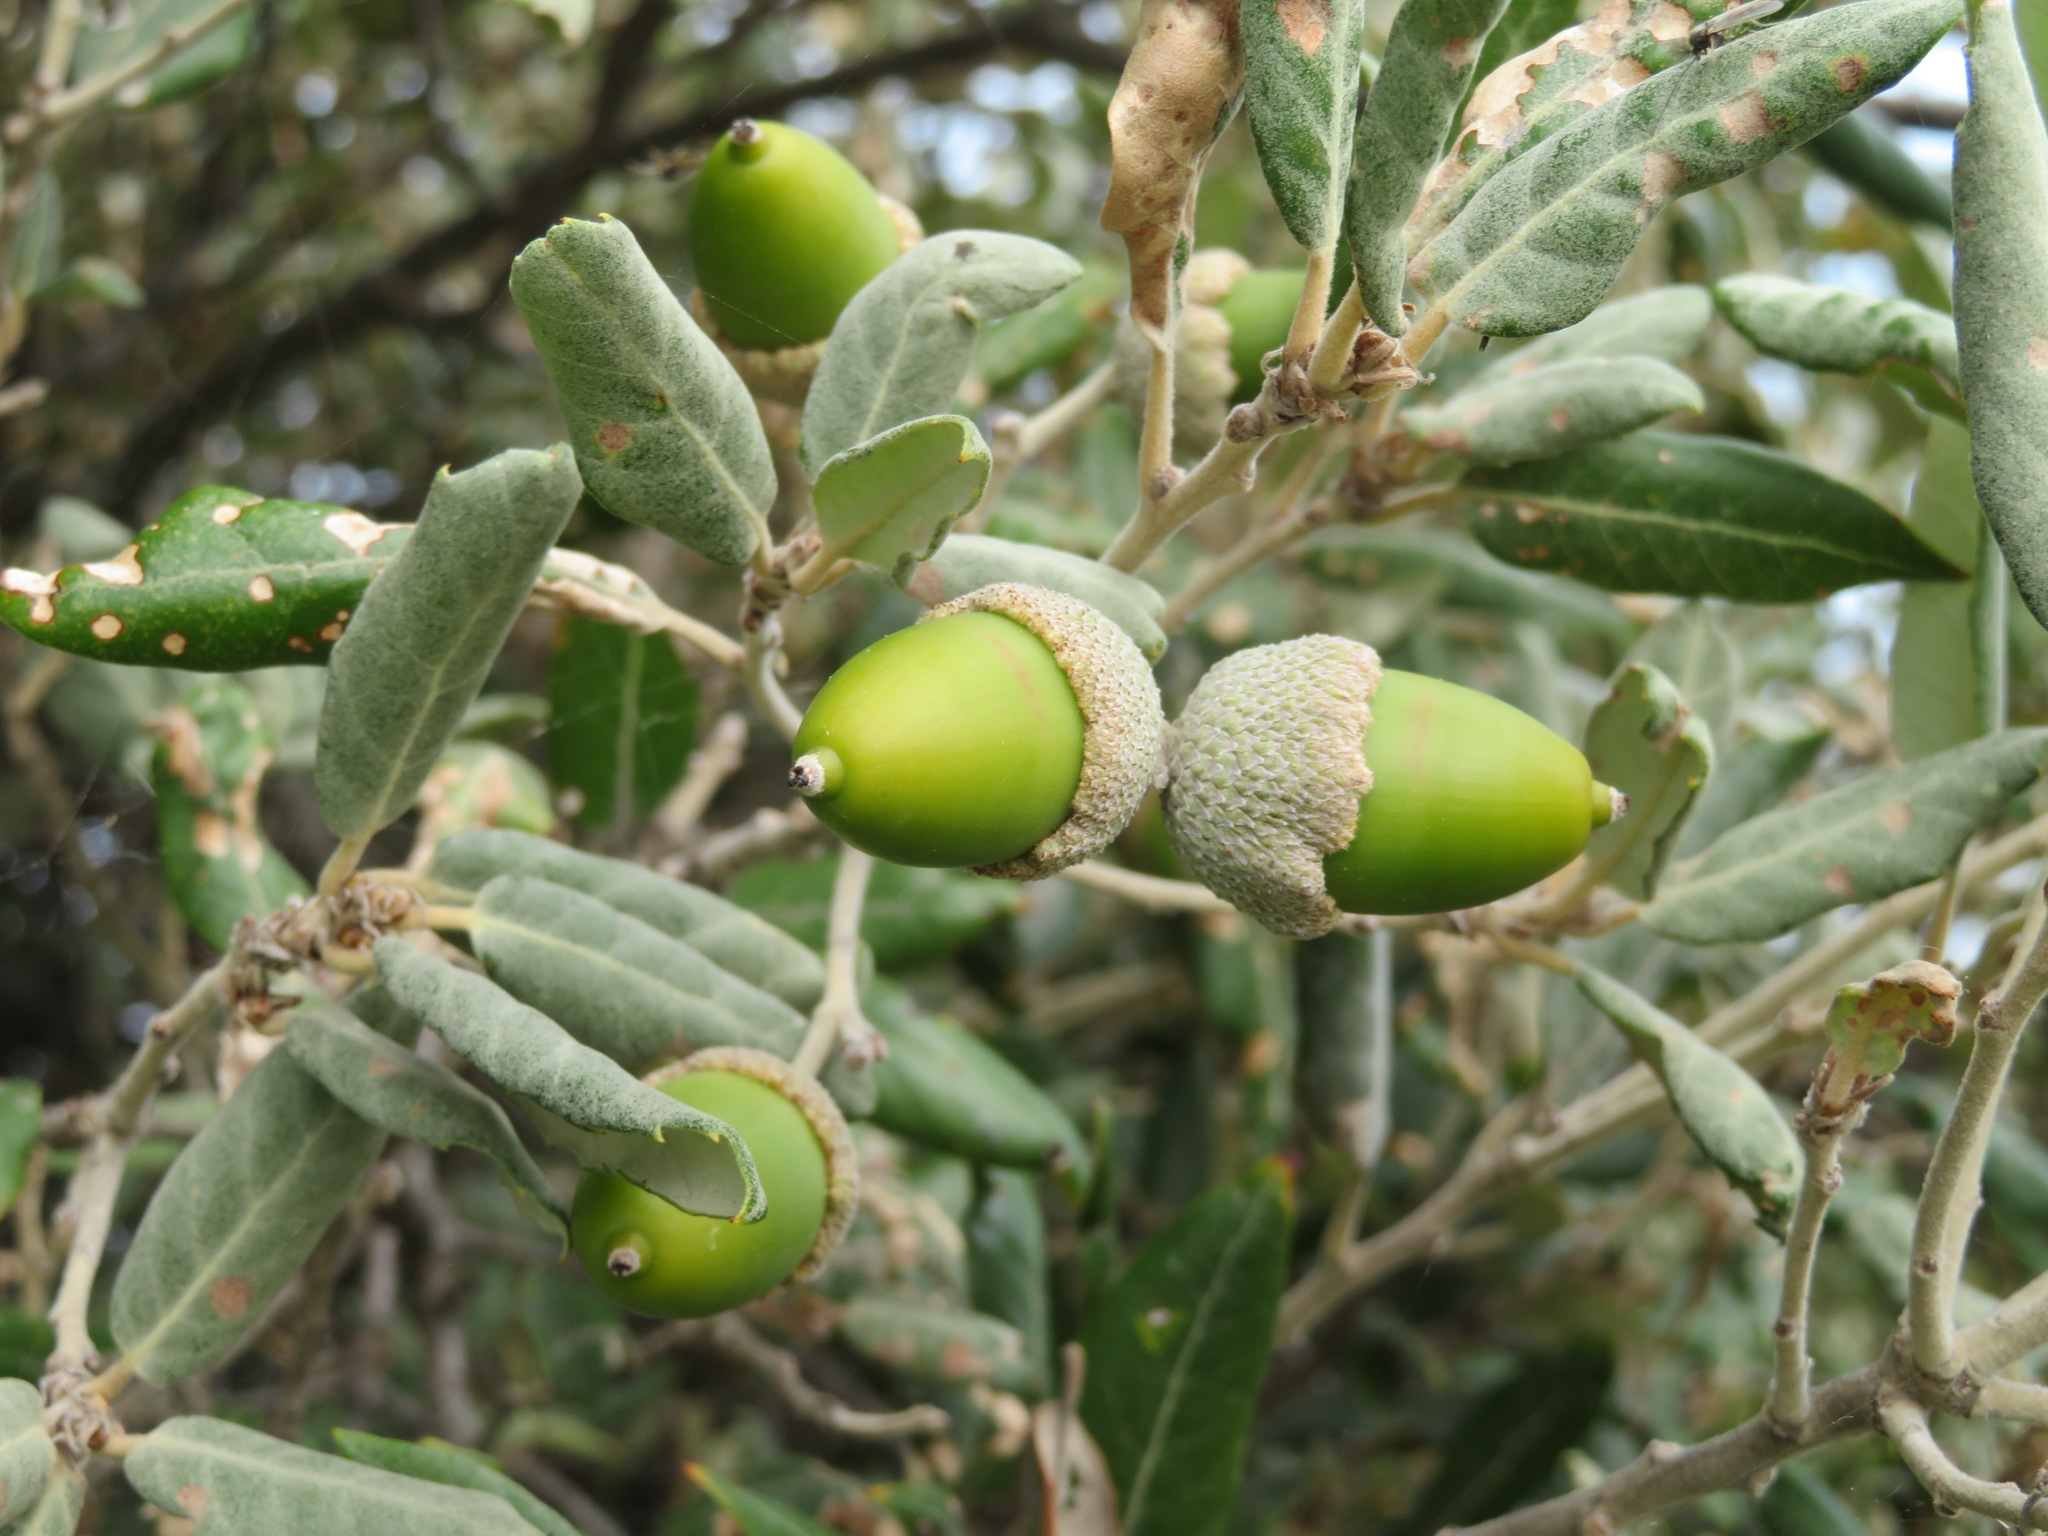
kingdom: Plantae
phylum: Tracheophyta
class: Magnoliopsida
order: Fagales
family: Fagaceae
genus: Quercus
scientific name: Quercus ilex
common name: Evergreen oak
